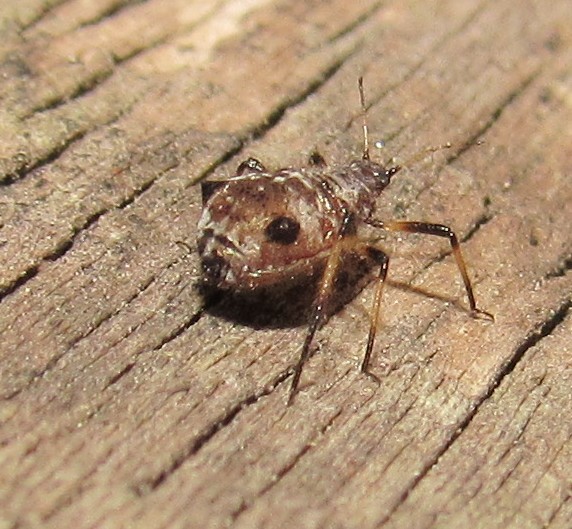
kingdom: Animalia
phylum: Arthropoda
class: Insecta
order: Hemiptera
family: Aphididae
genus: Cinara
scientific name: Cinara
